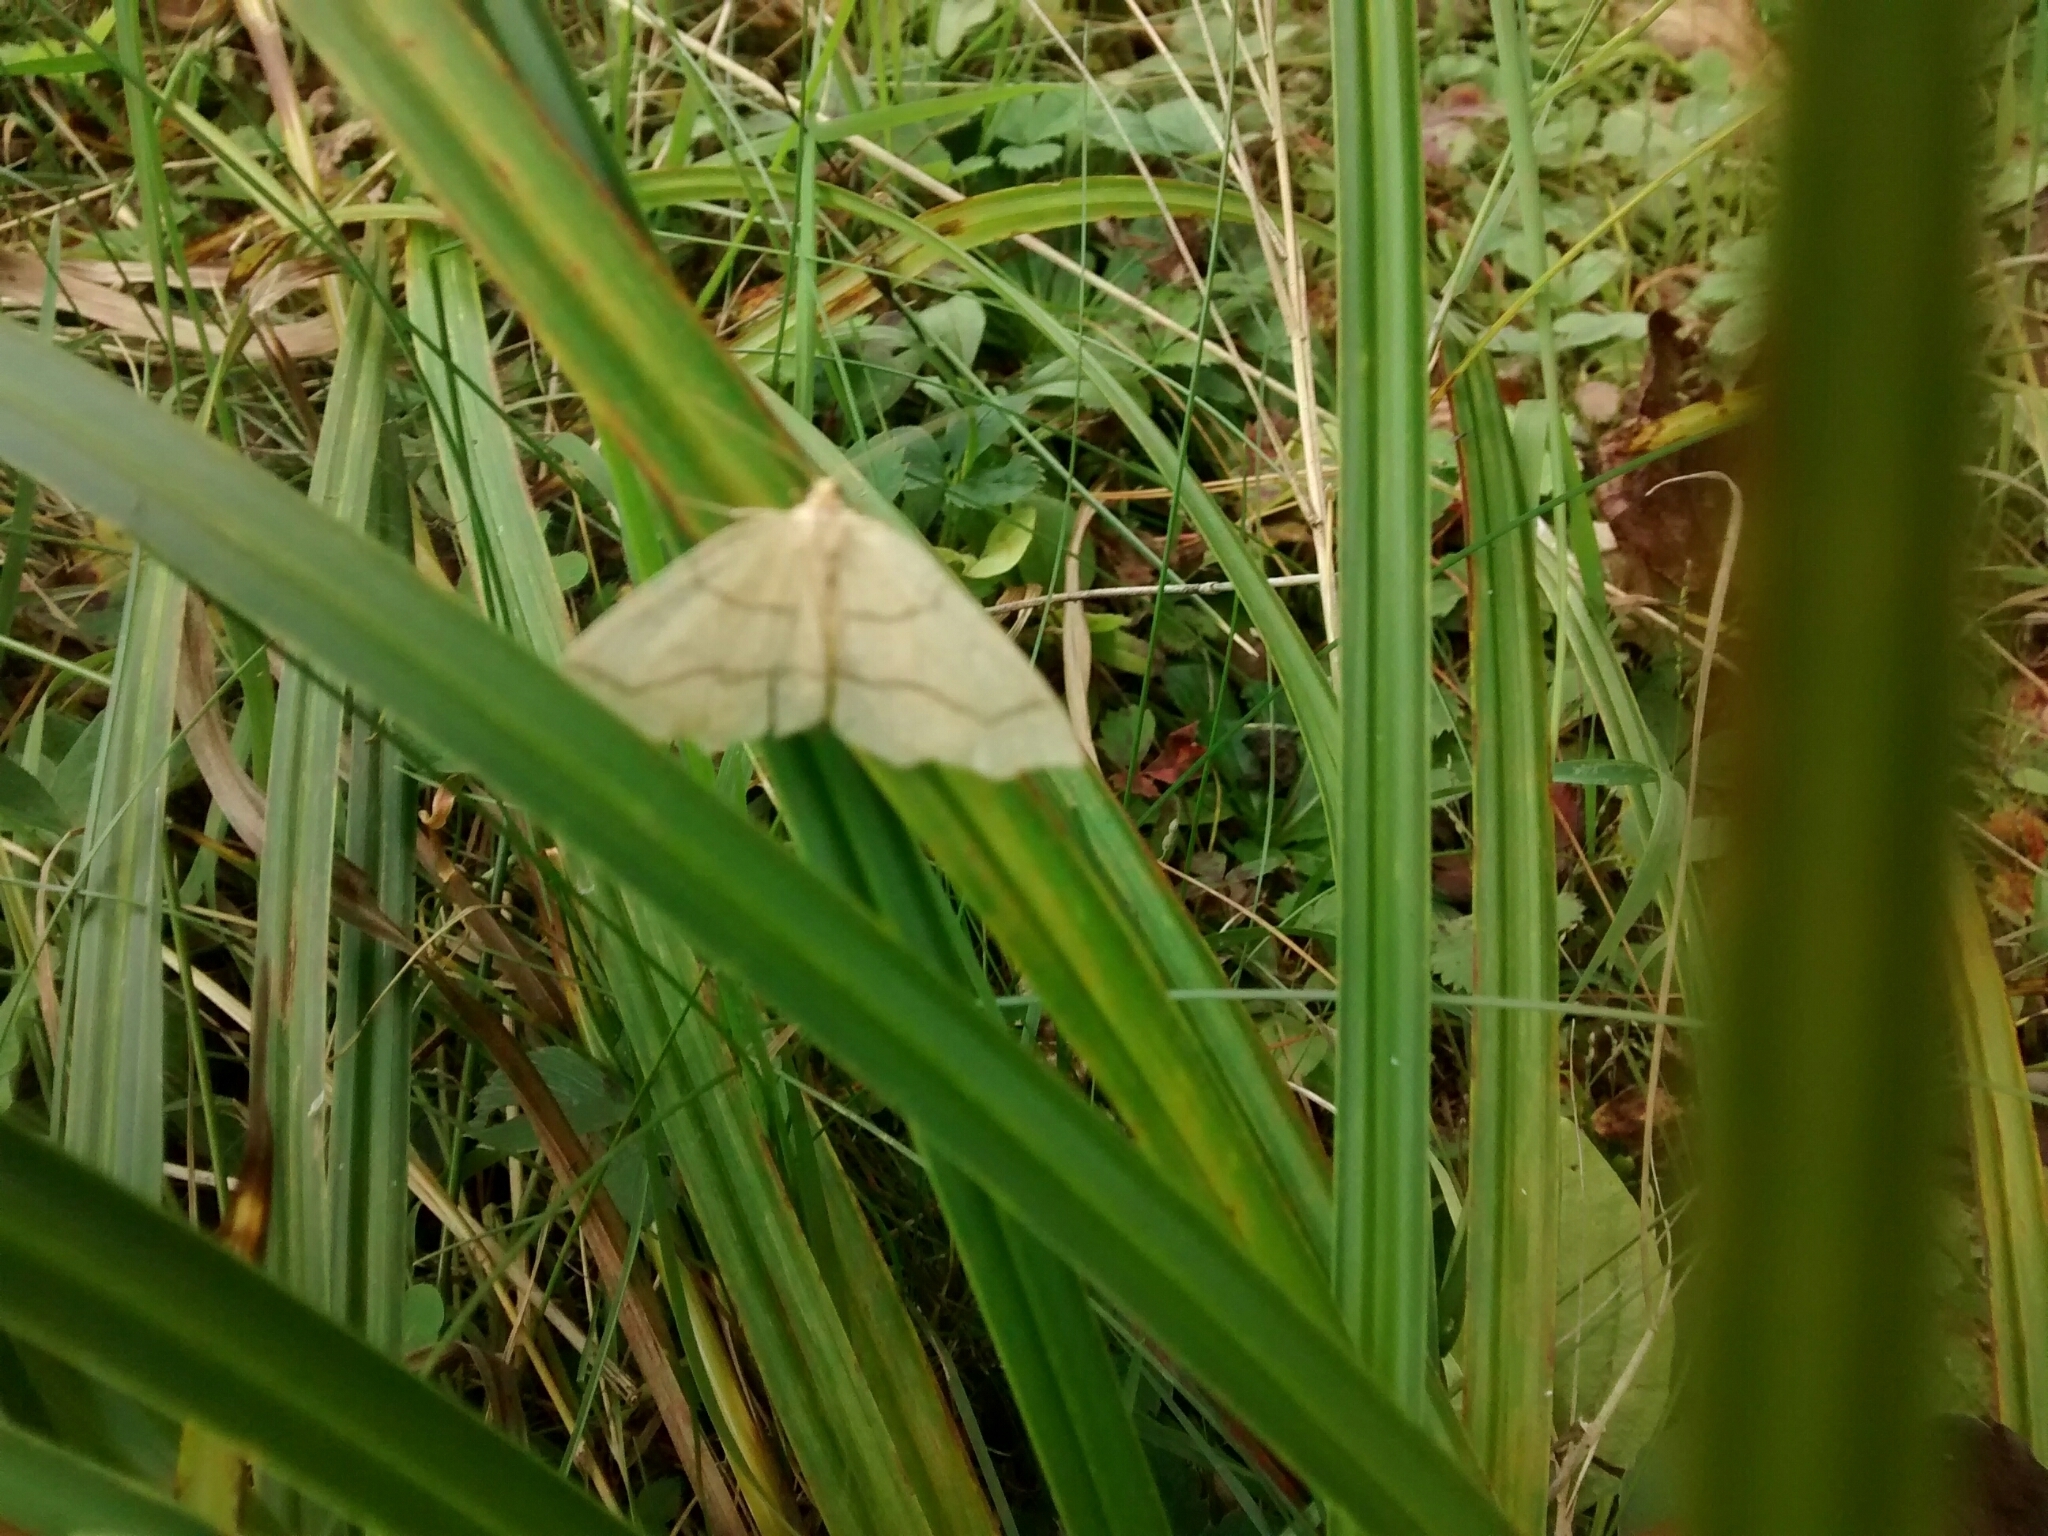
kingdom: Animalia
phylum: Arthropoda
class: Insecta
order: Lepidoptera
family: Geometridae
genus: Lambdina
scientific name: Lambdina fiscellaria
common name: Hemlock looper
